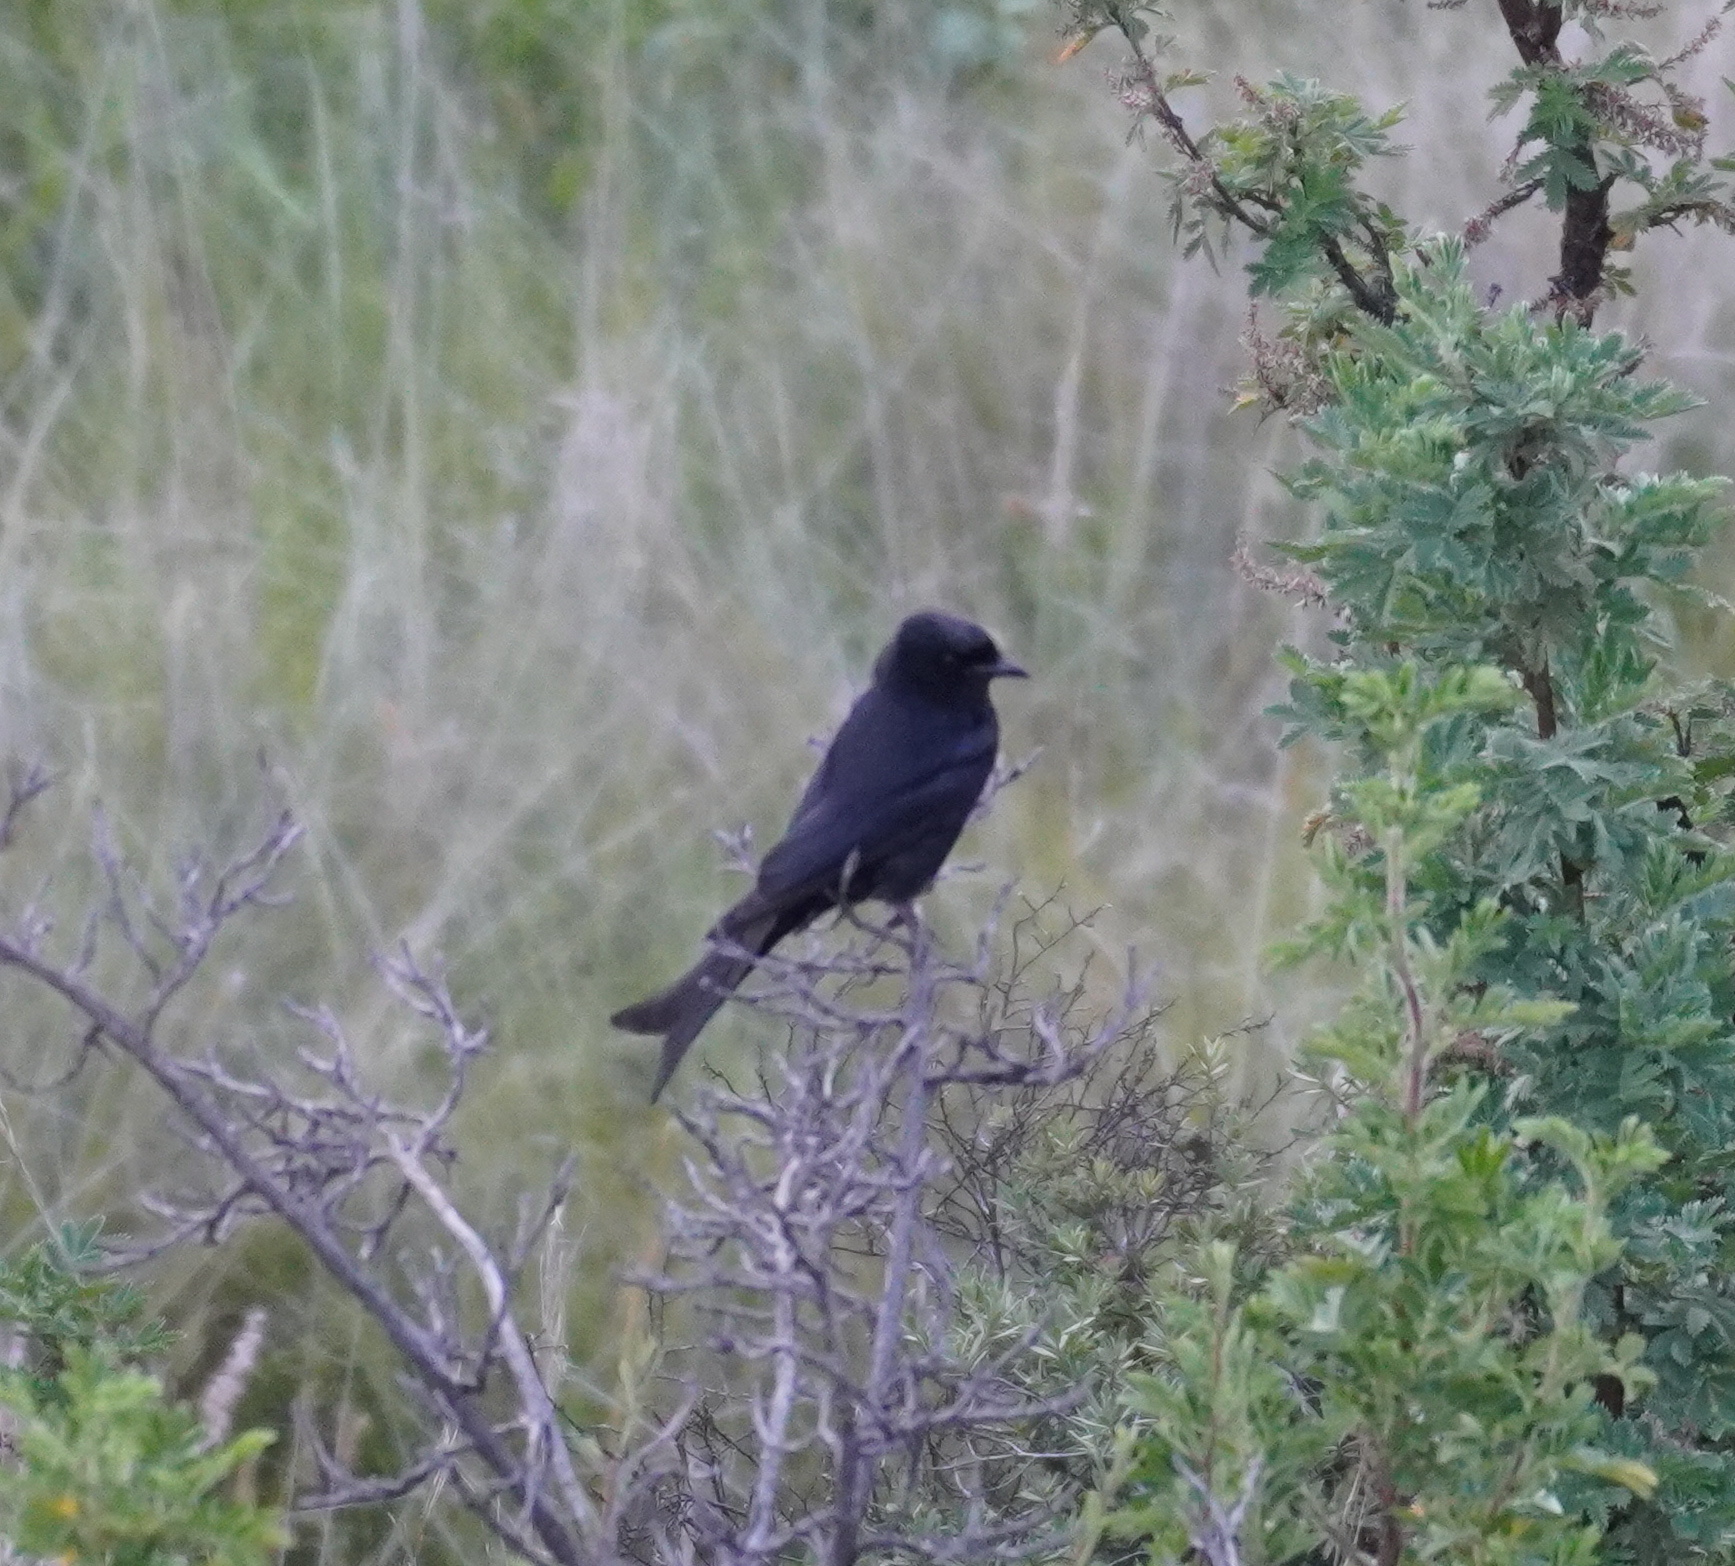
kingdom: Animalia
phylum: Chordata
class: Aves
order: Passeriformes
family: Dicruridae
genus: Dicrurus
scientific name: Dicrurus adsimilis
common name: Fork-tailed drongo
